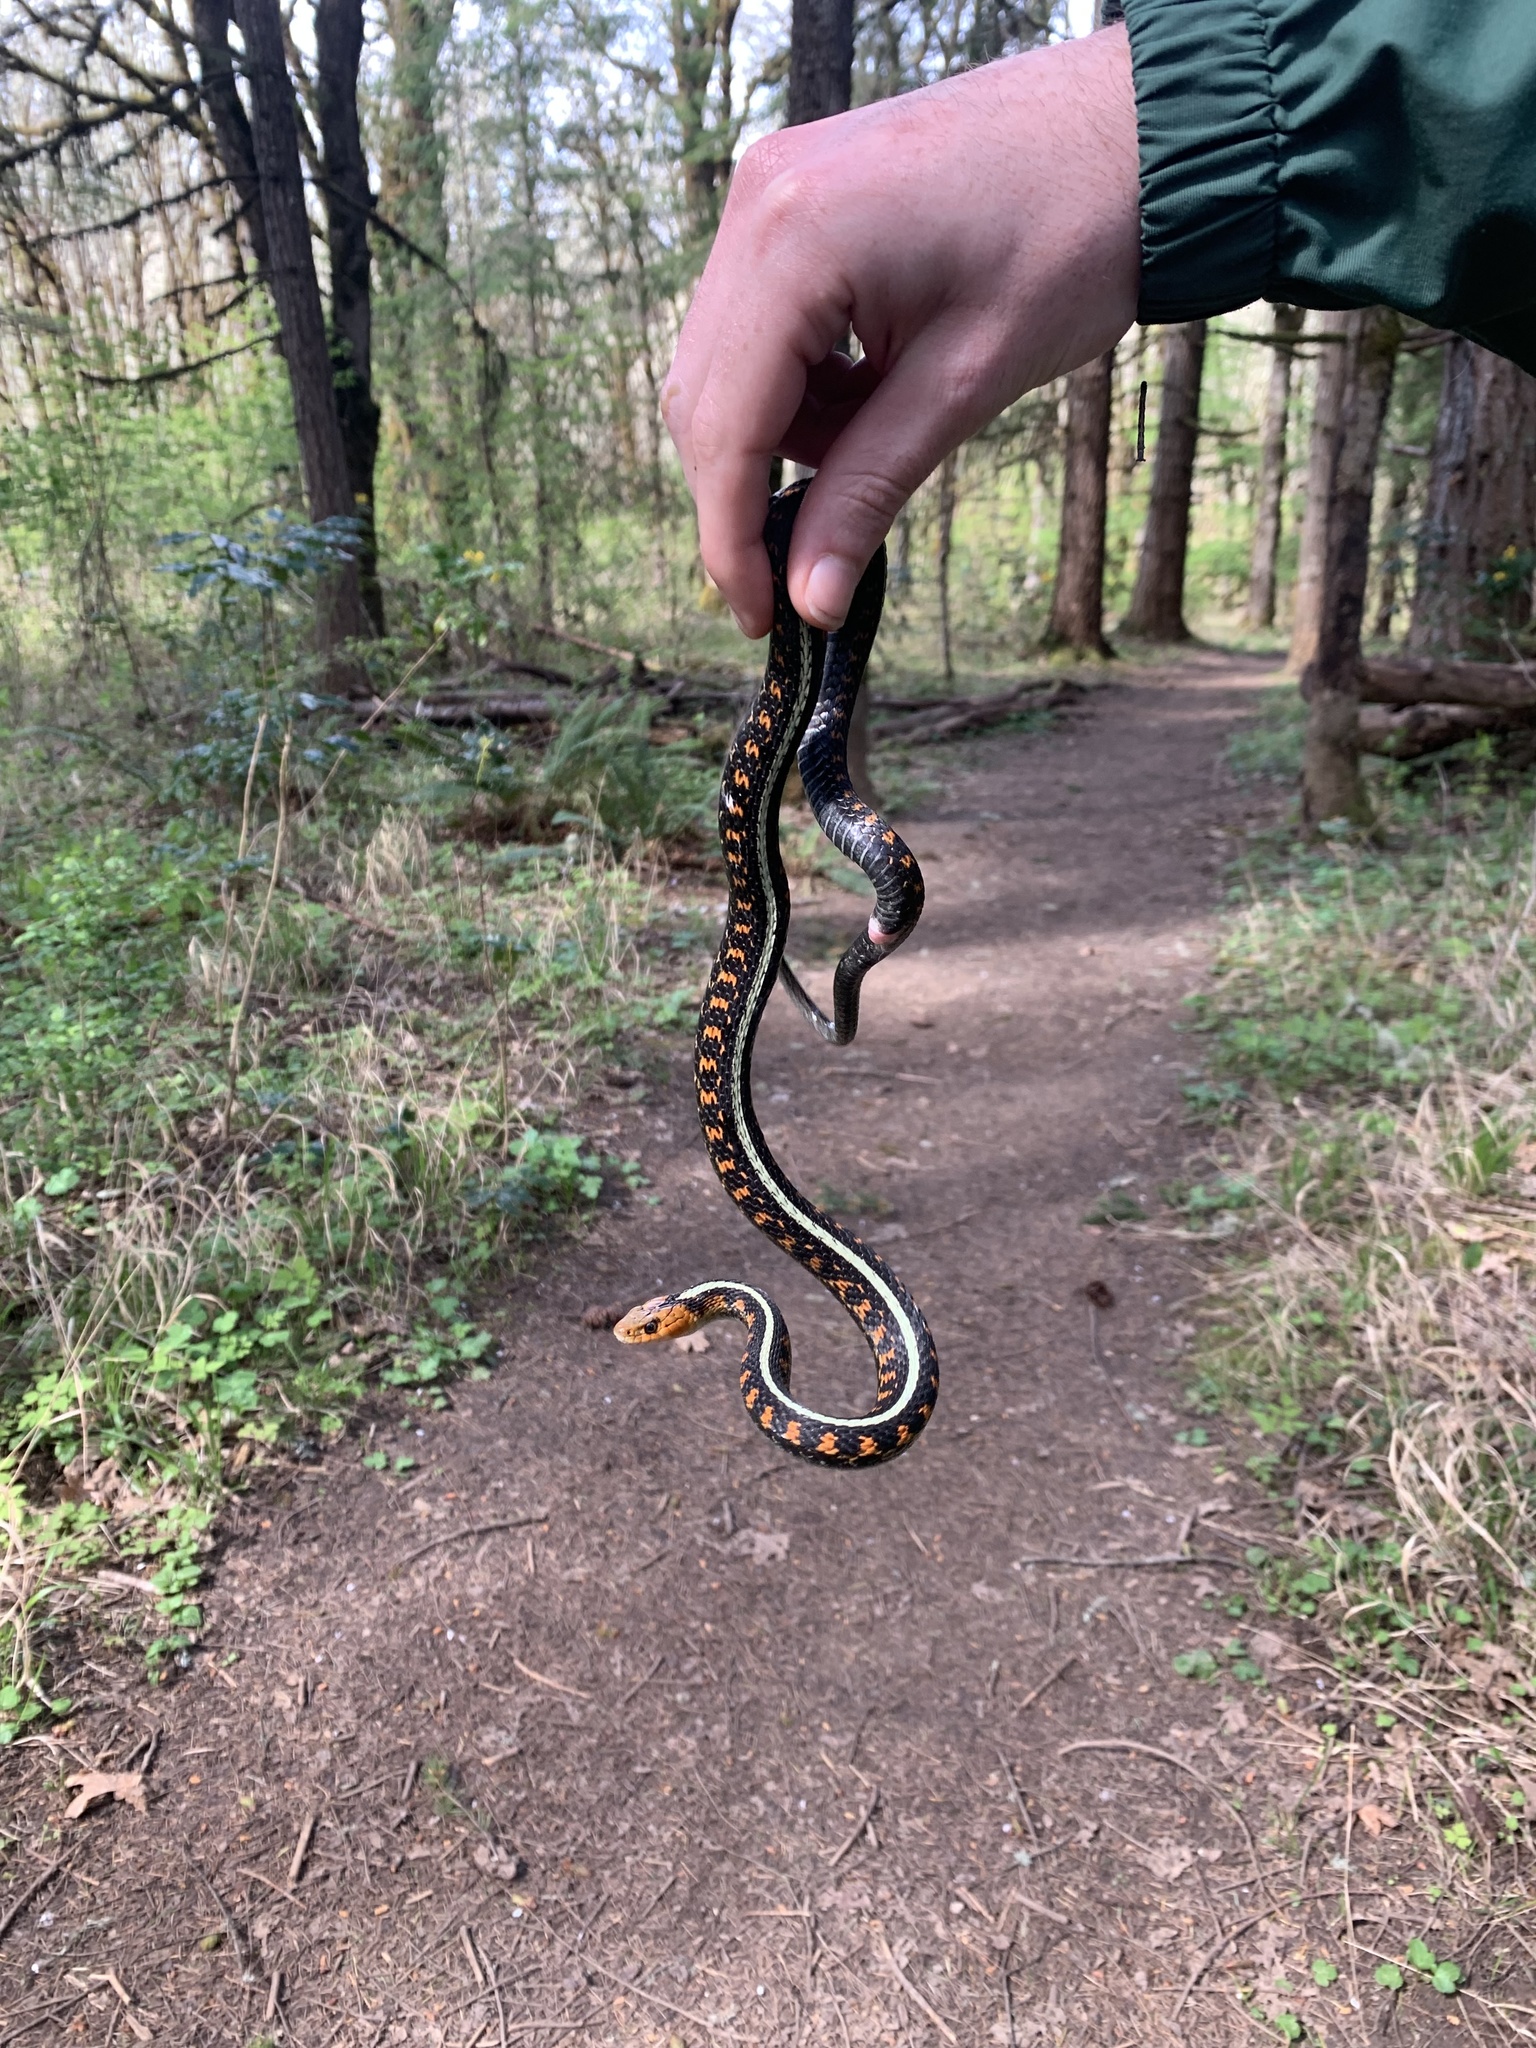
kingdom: Animalia
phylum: Chordata
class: Squamata
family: Colubridae
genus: Thamnophis
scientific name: Thamnophis sirtalis
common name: Common garter snake
